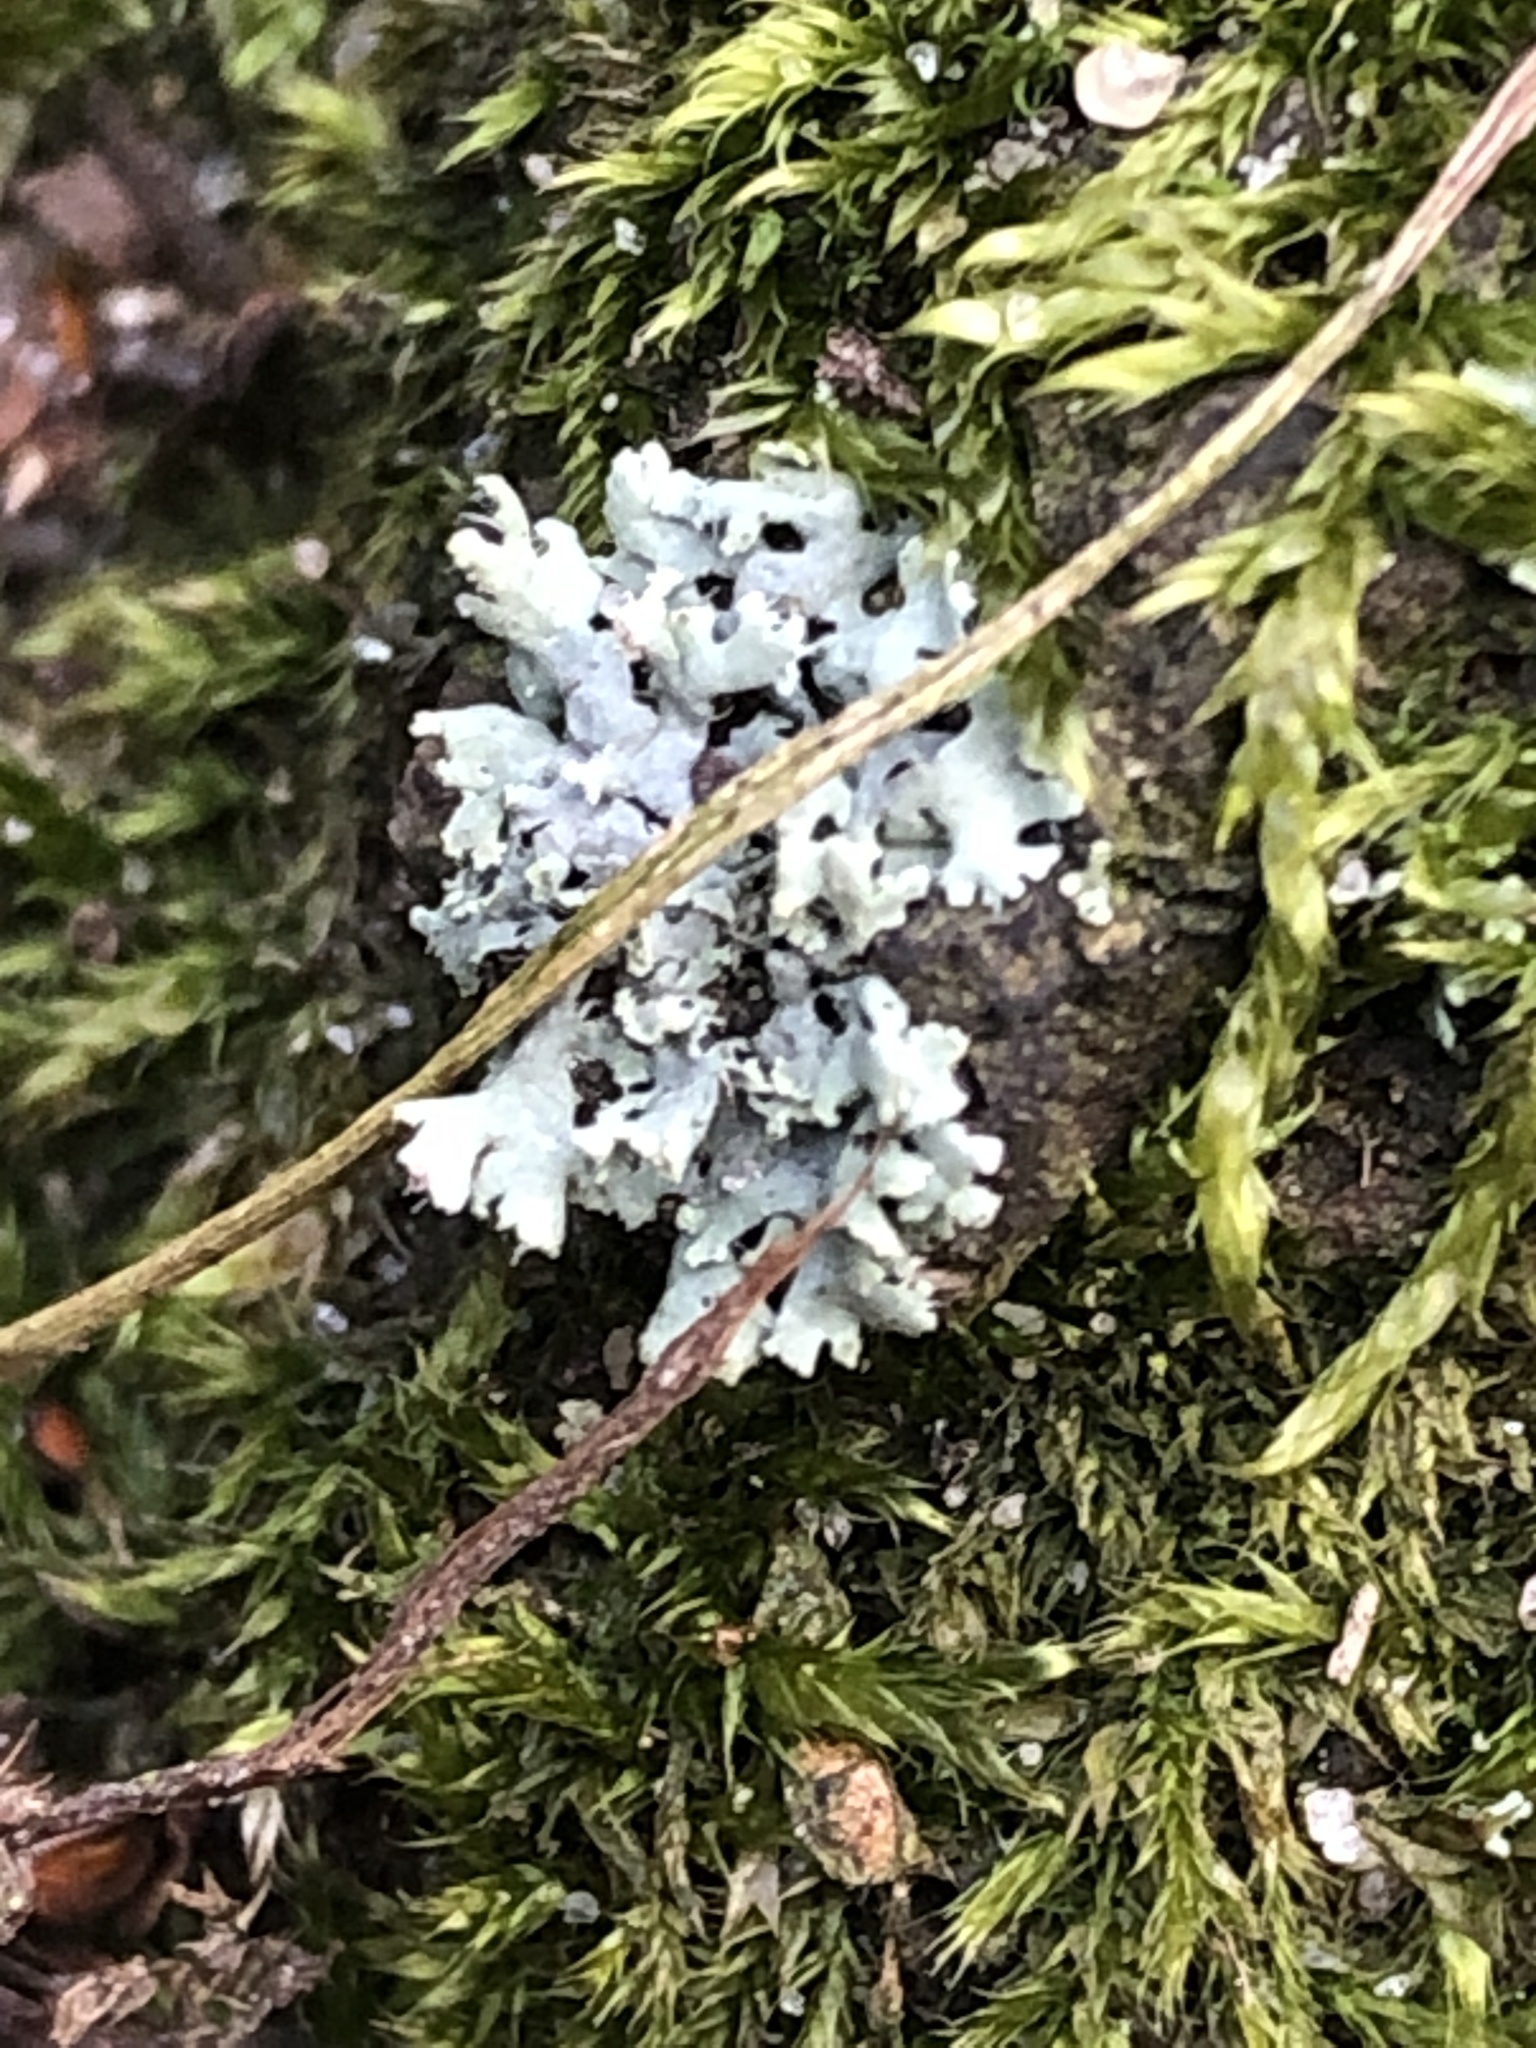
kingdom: Fungi
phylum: Ascomycota
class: Lecanoromycetes
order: Caliciales
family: Physciaceae
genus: Physcia
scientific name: Physcia adscendens
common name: Hooded rosette lichen
